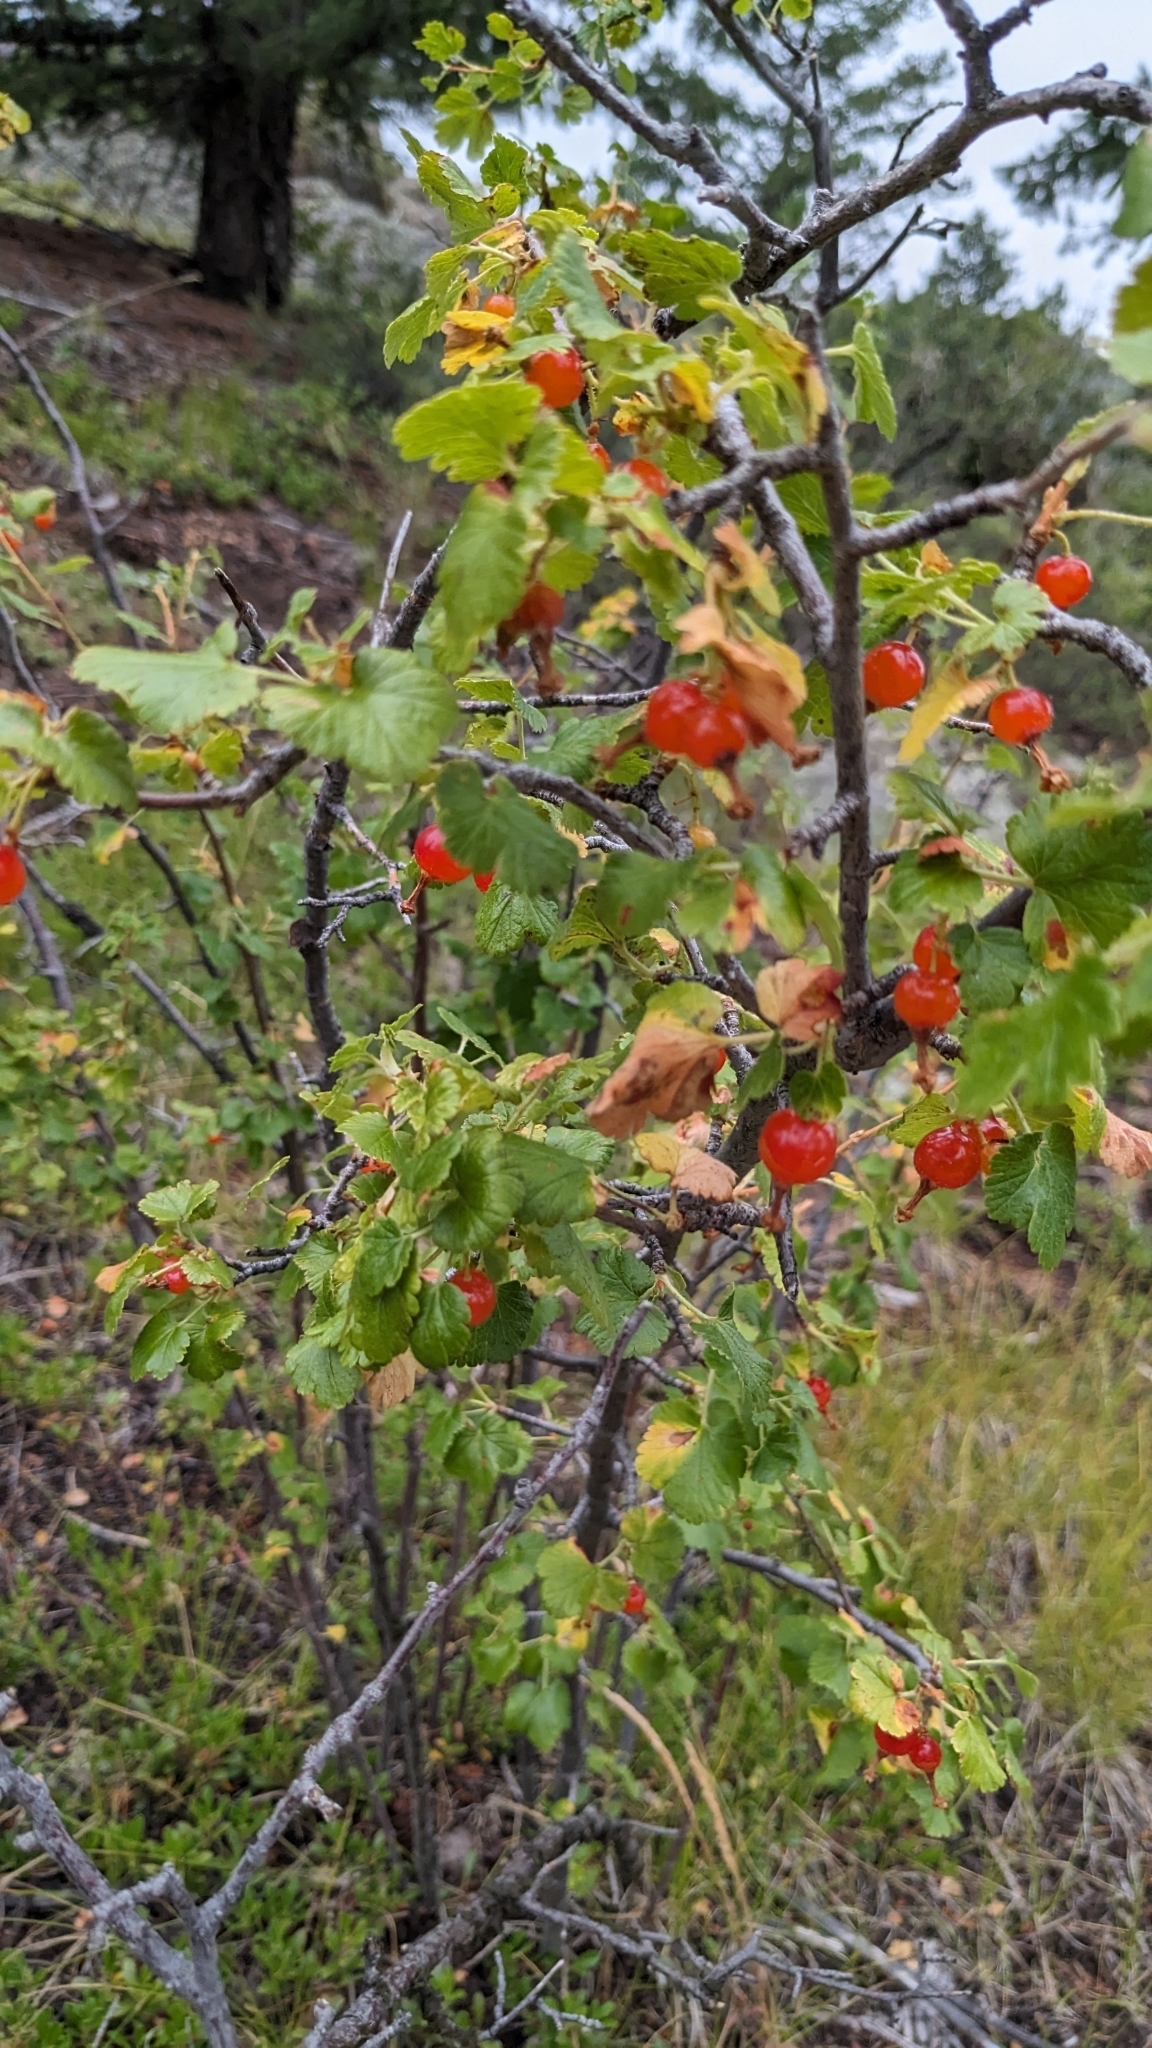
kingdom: Plantae
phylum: Tracheophyta
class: Magnoliopsida
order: Saxifragales
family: Grossulariaceae
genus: Ribes
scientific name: Ribes cereum
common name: Wax currant
